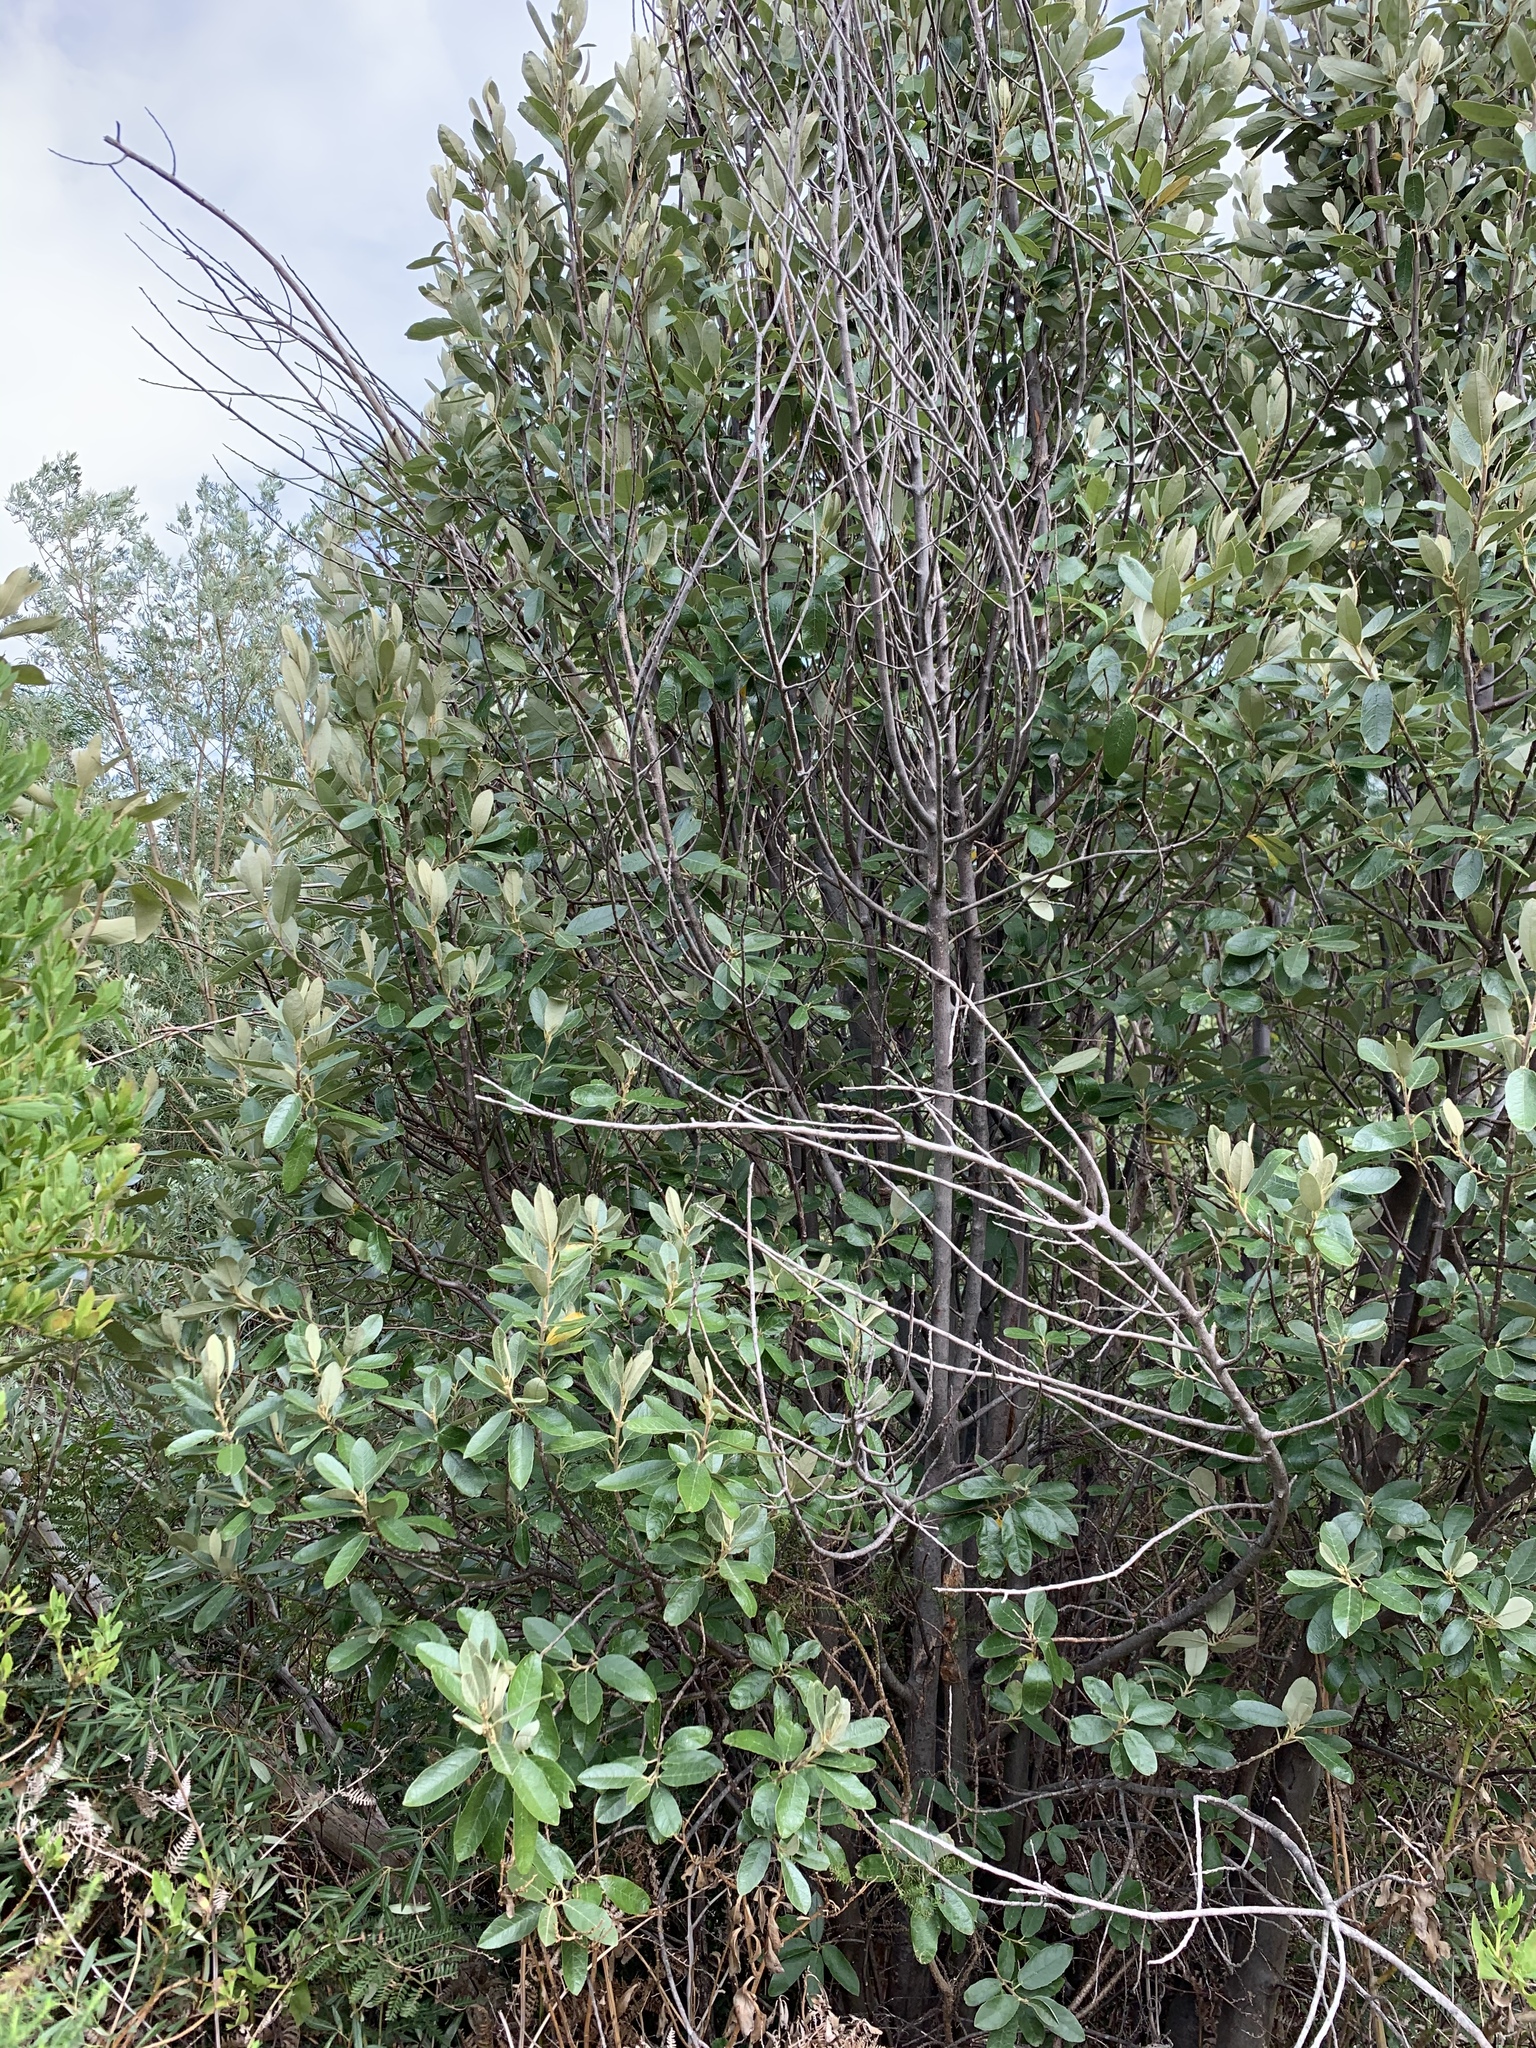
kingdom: Plantae
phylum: Tracheophyta
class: Magnoliopsida
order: Malpighiales
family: Achariaceae
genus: Kiggelaria
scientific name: Kiggelaria africana
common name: Wild peach
